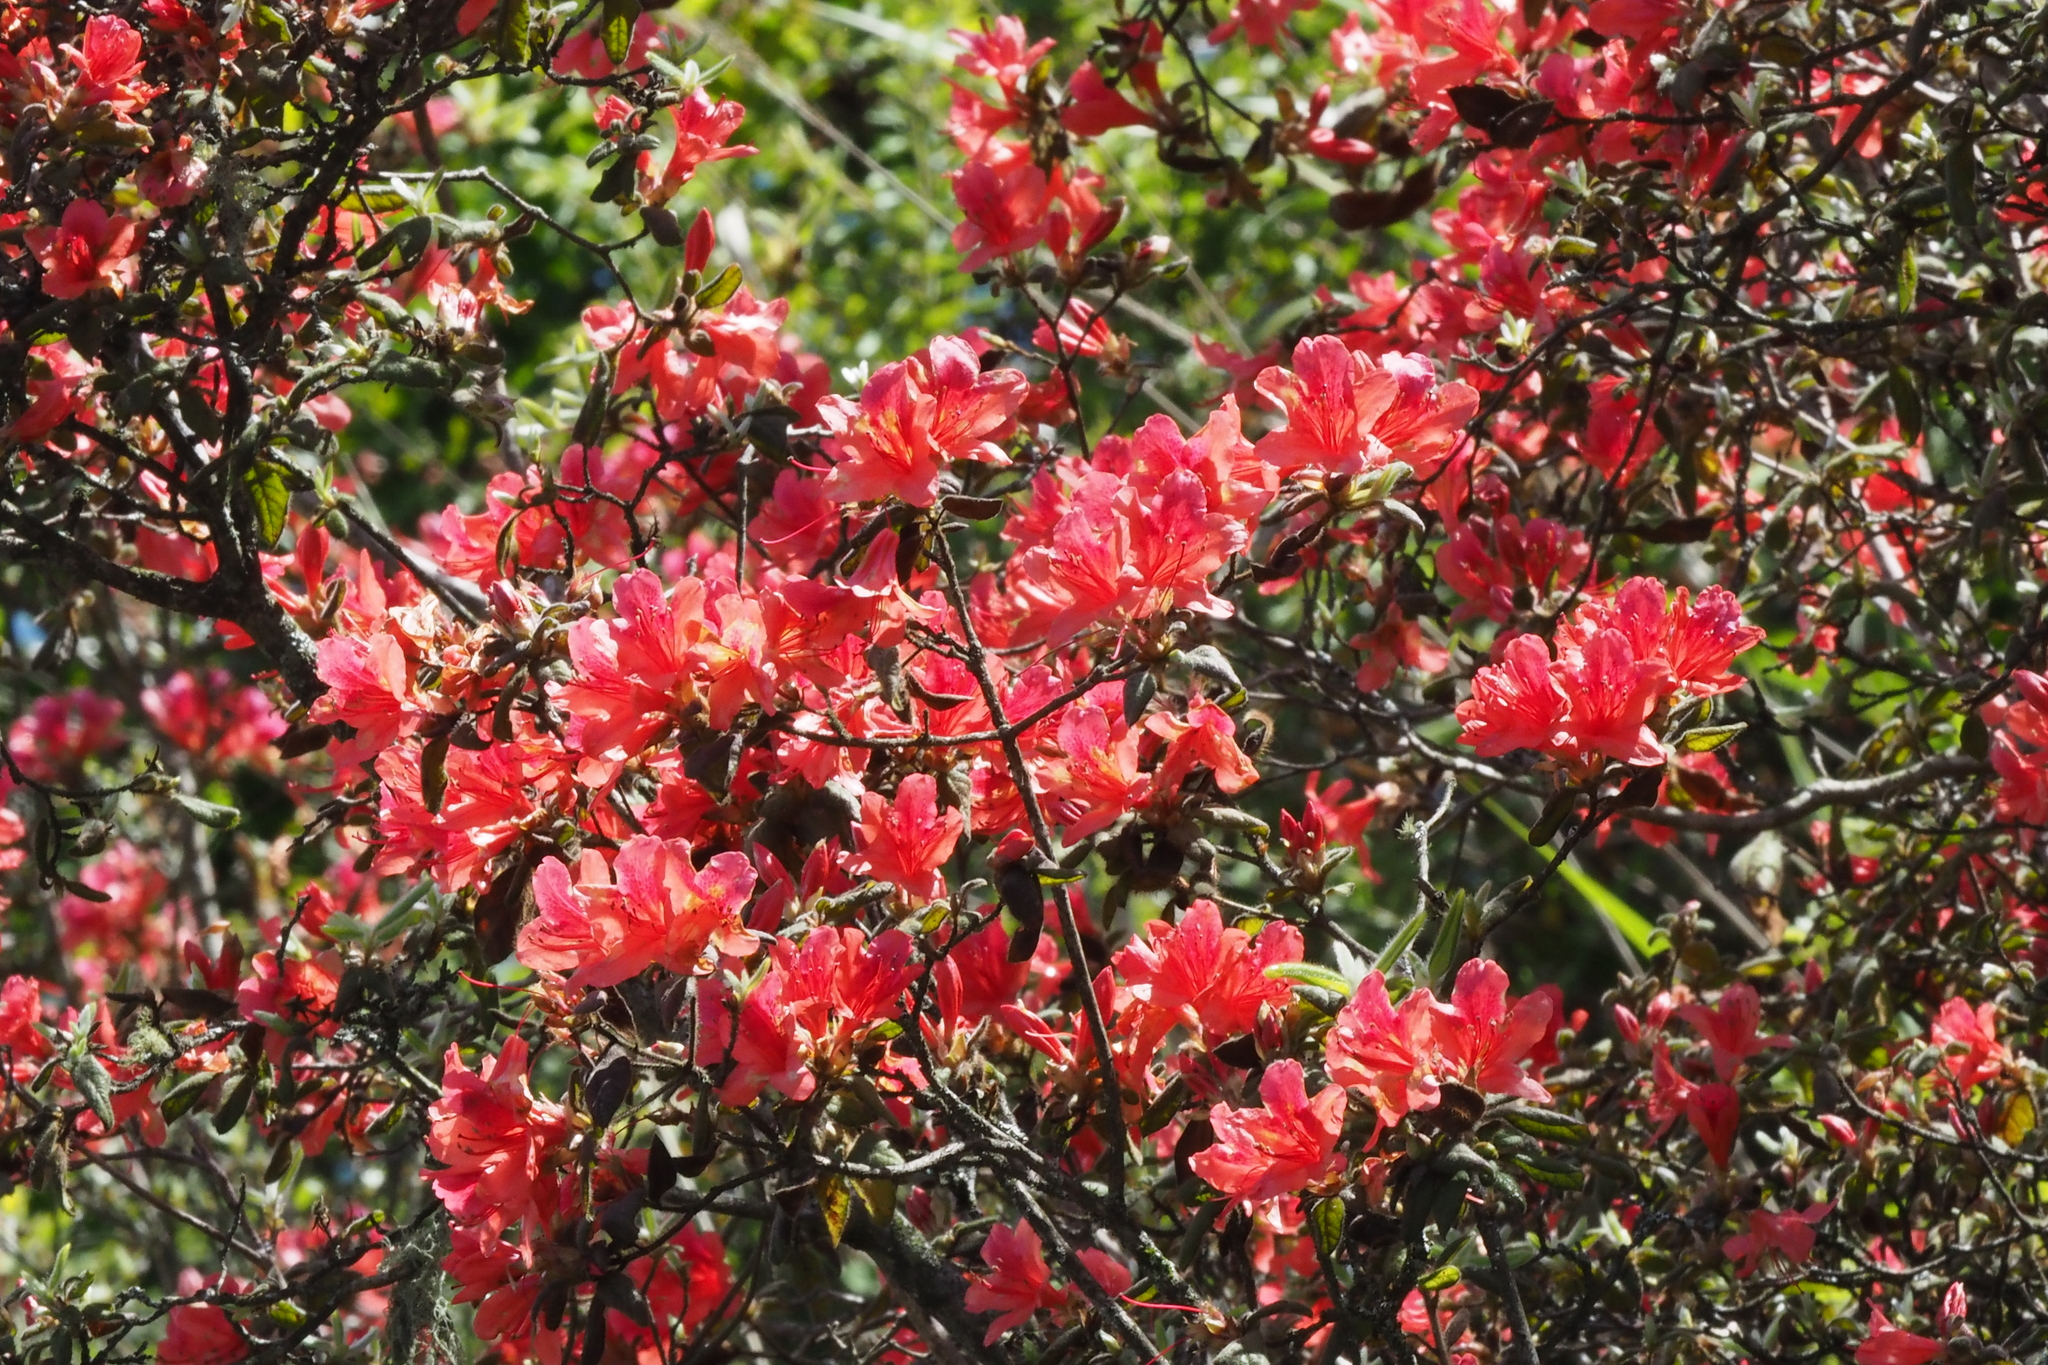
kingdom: Plantae
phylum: Tracheophyta
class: Magnoliopsida
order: Ericales
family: Ericaceae
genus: Rhododendron
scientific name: Rhododendron oldhamii
